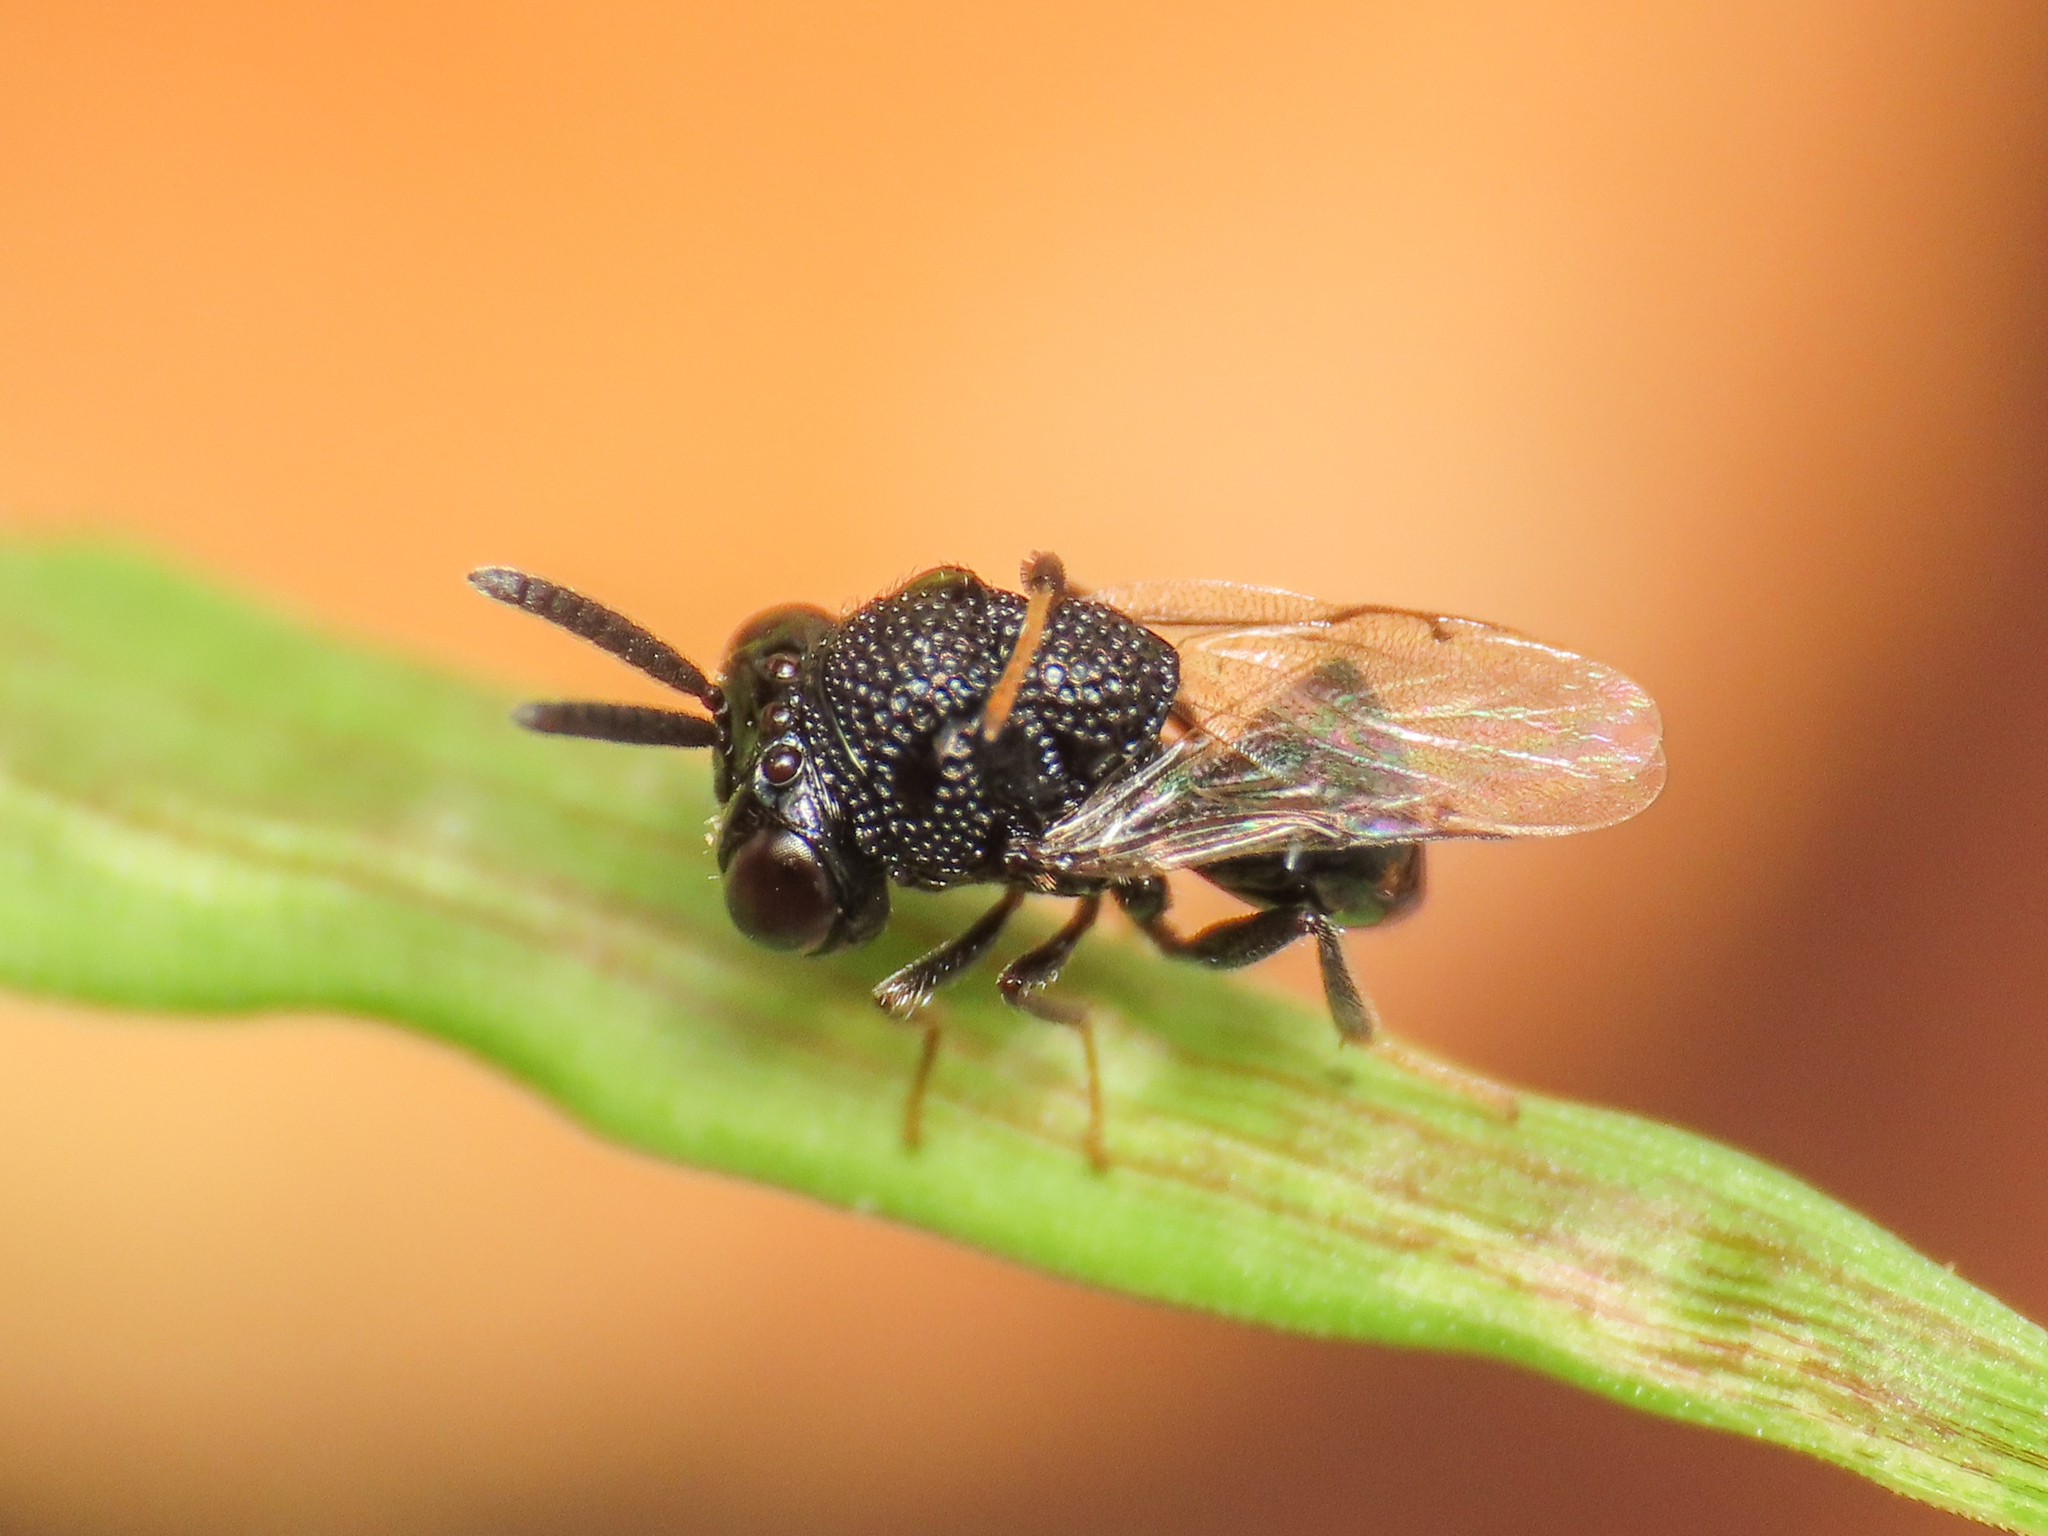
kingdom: Animalia
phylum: Arthropoda
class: Insecta
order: Hymenoptera
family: Perilampidae
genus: Perilampus
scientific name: Perilampus minutalis
